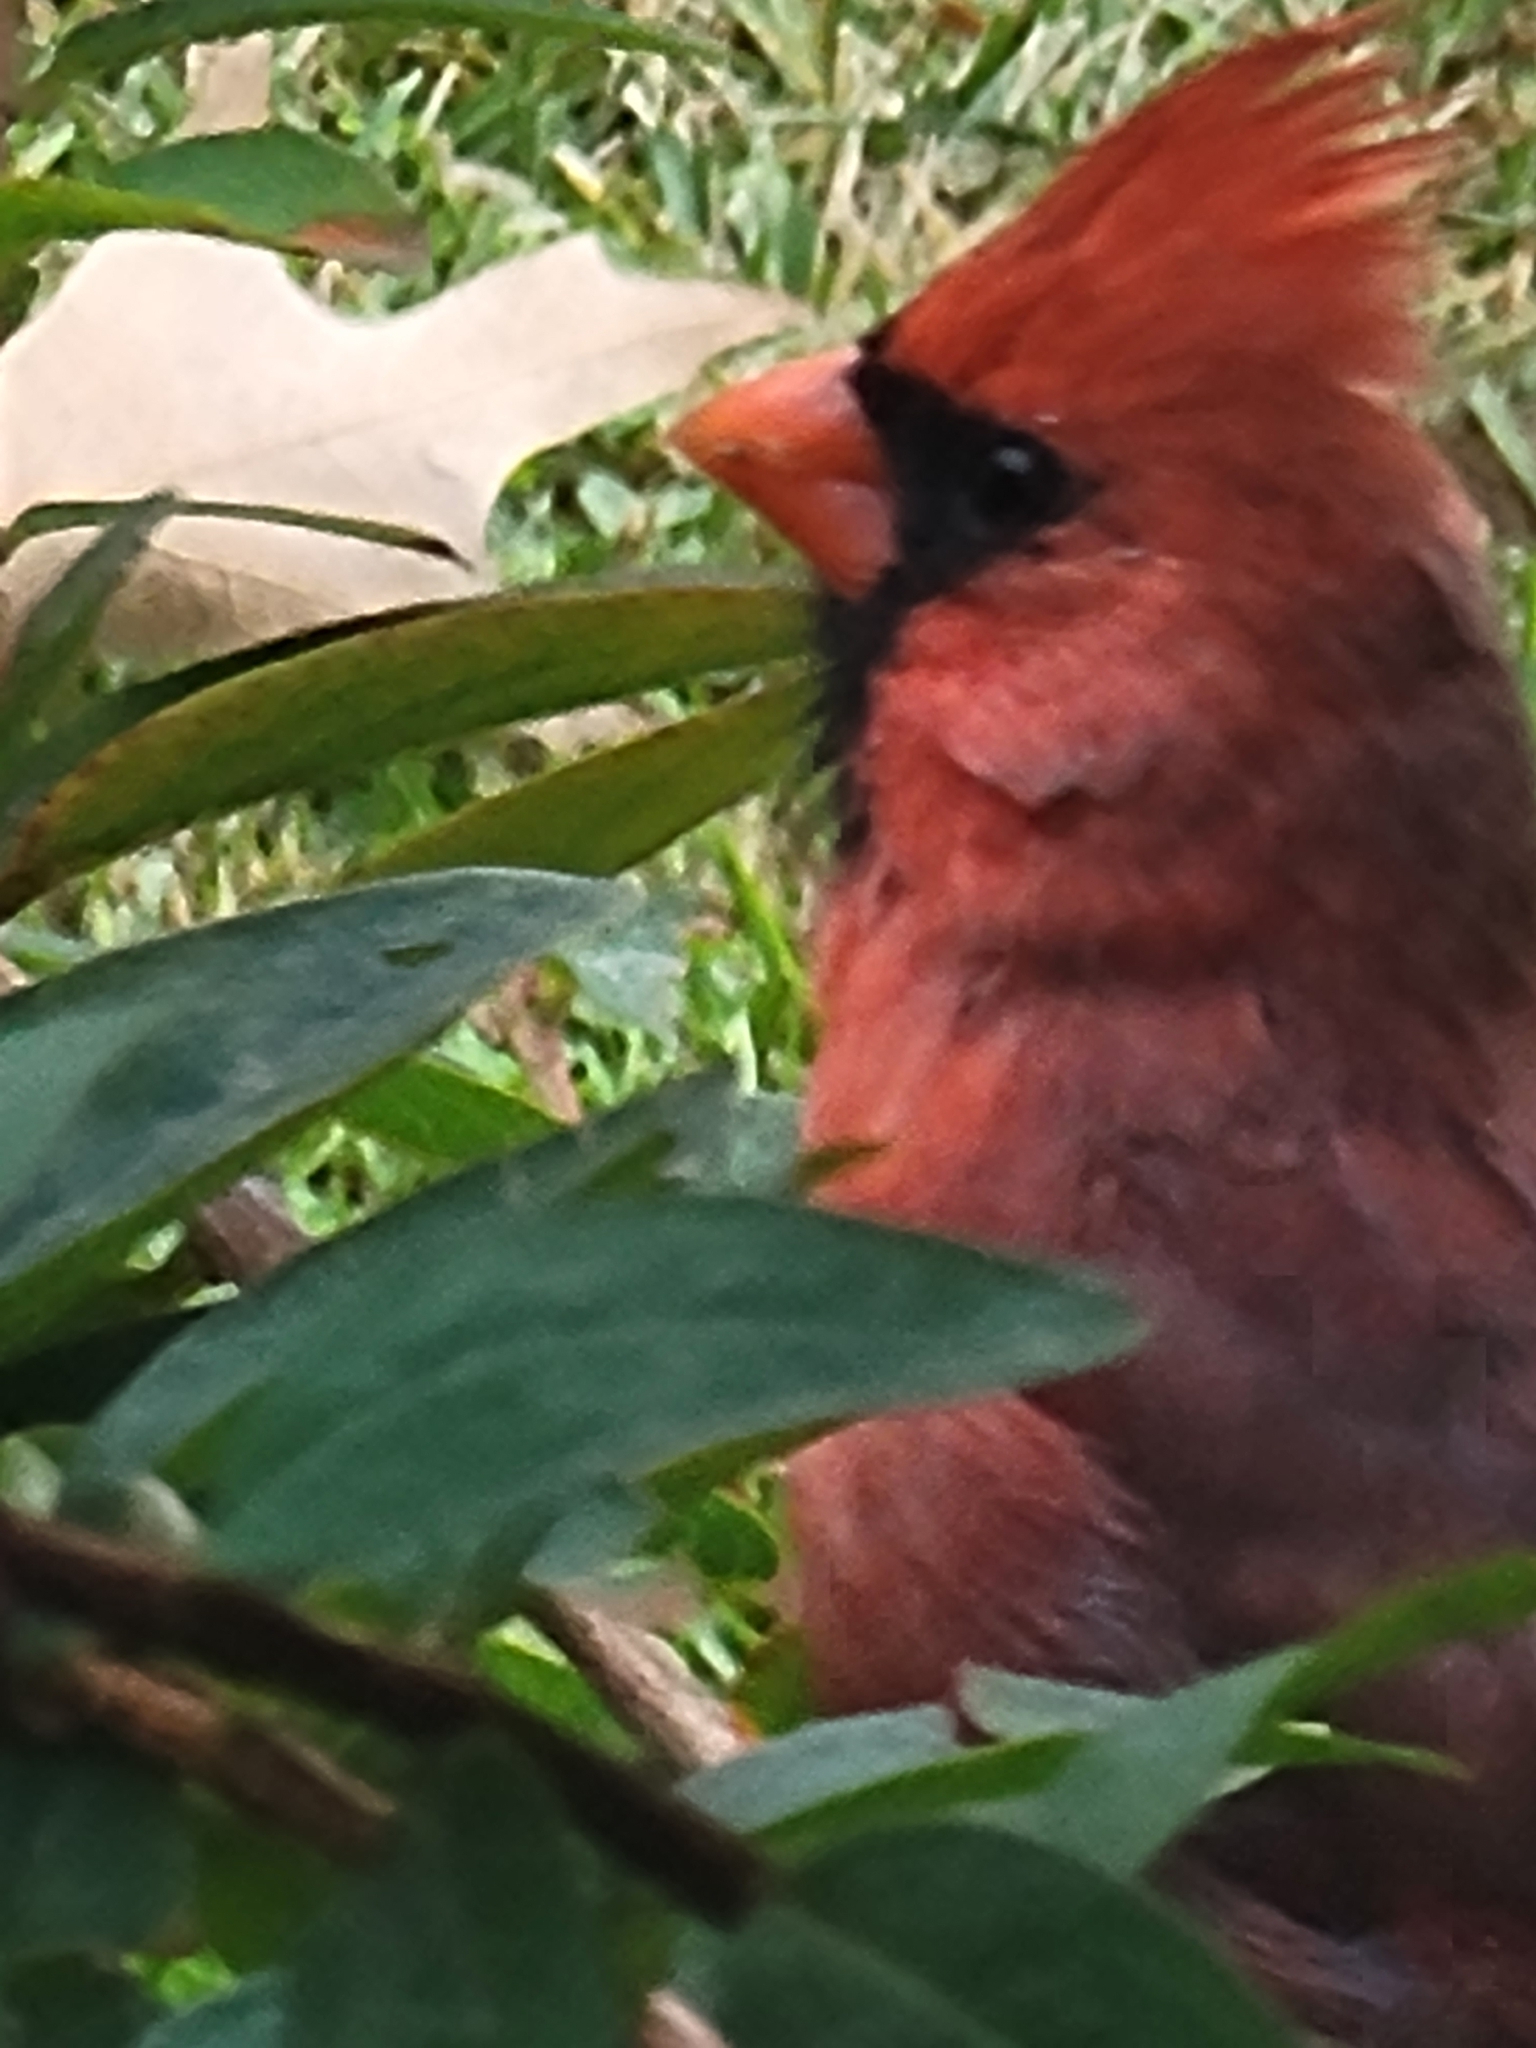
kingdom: Animalia
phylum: Chordata
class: Aves
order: Passeriformes
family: Cardinalidae
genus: Cardinalis
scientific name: Cardinalis cardinalis
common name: Northern cardinal
